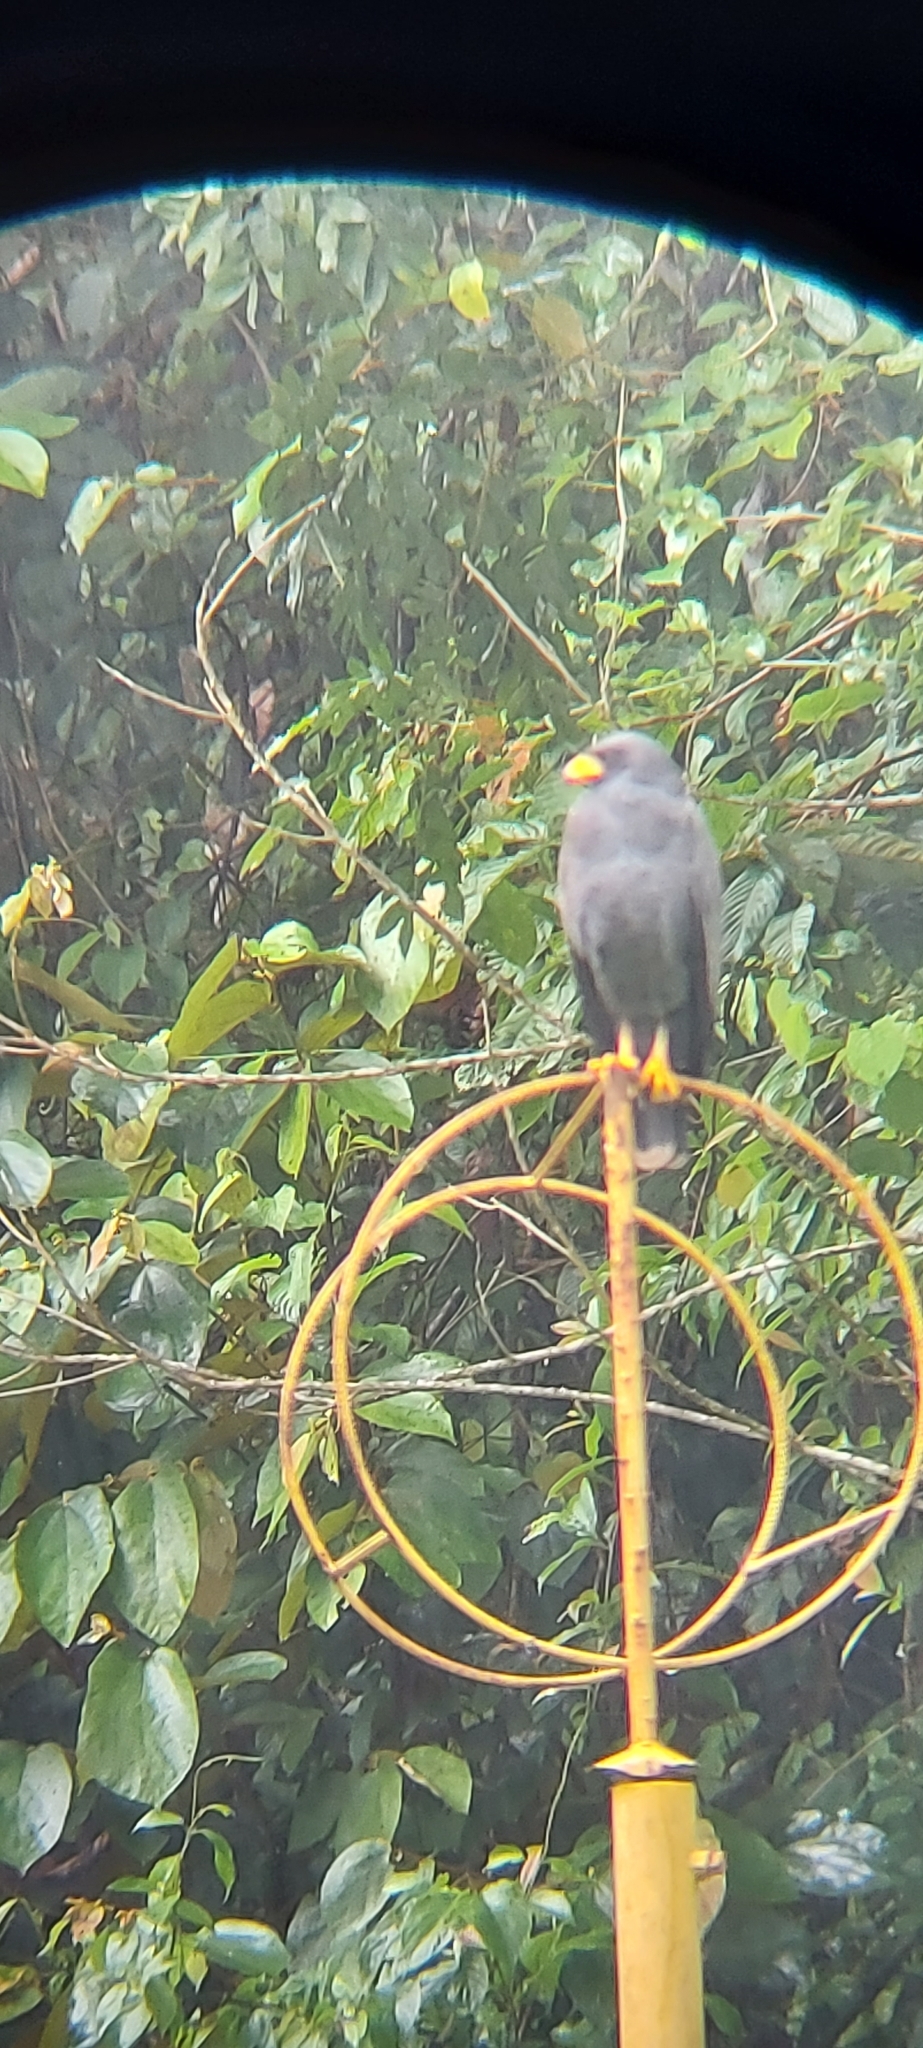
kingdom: Animalia
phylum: Chordata
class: Aves
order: Accipitriformes
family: Accipitridae
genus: Buteogallus
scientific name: Buteogallus anthracinus
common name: Common black hawk
